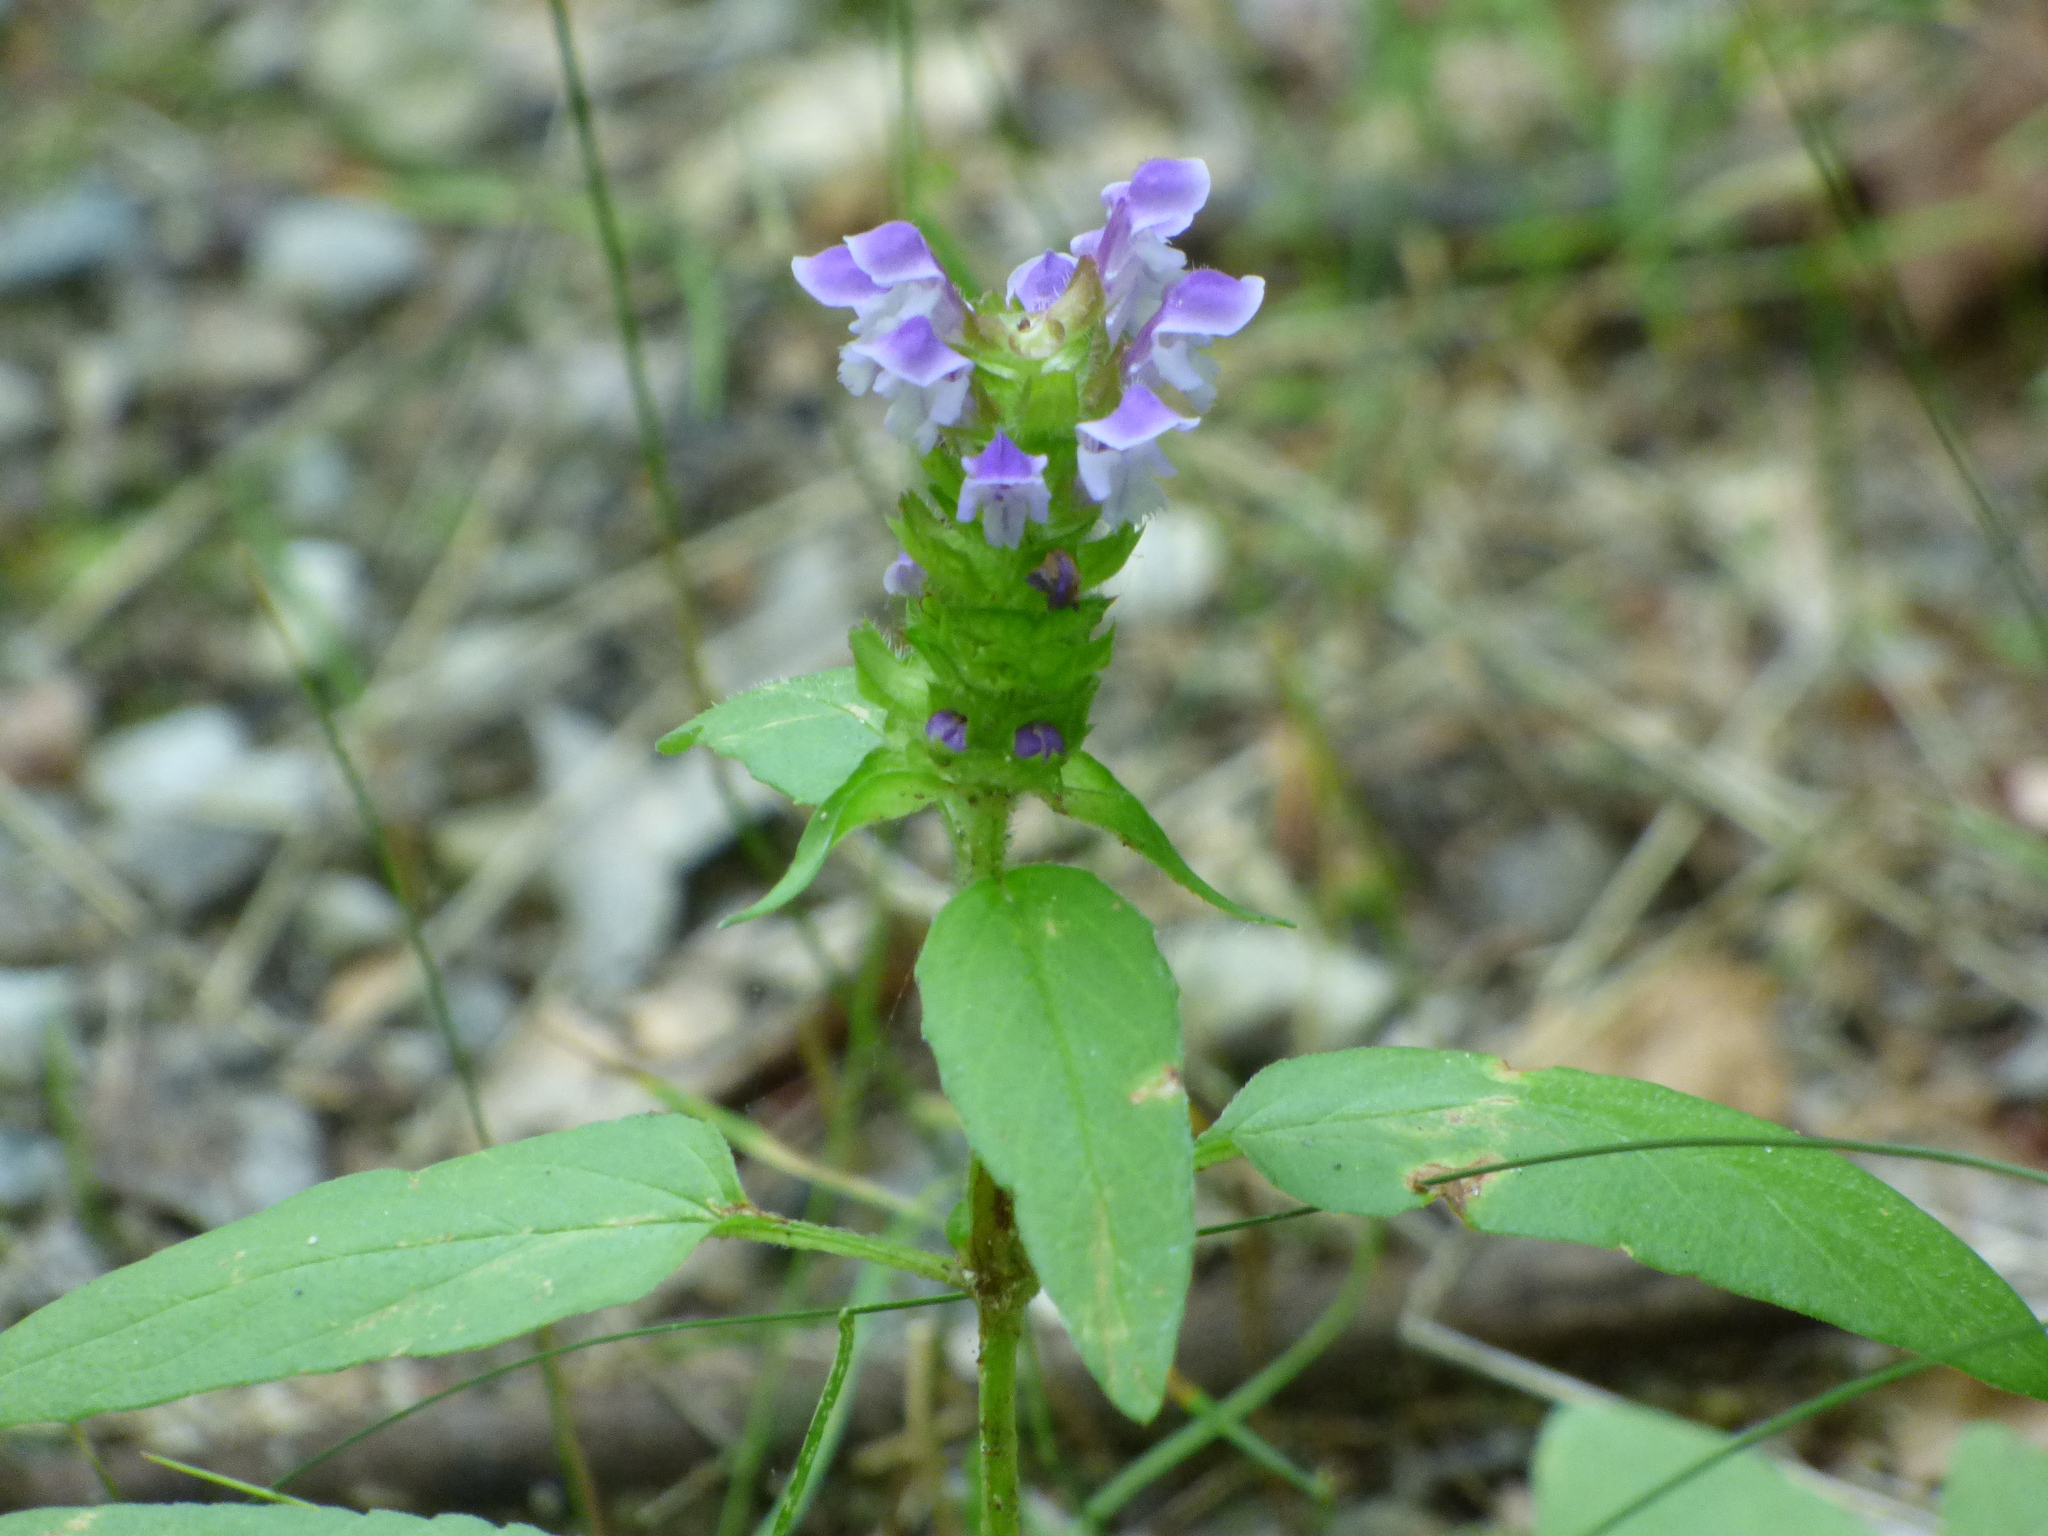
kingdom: Plantae
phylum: Tracheophyta
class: Magnoliopsida
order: Lamiales
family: Lamiaceae
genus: Prunella
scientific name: Prunella vulgaris
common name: Heal-all
